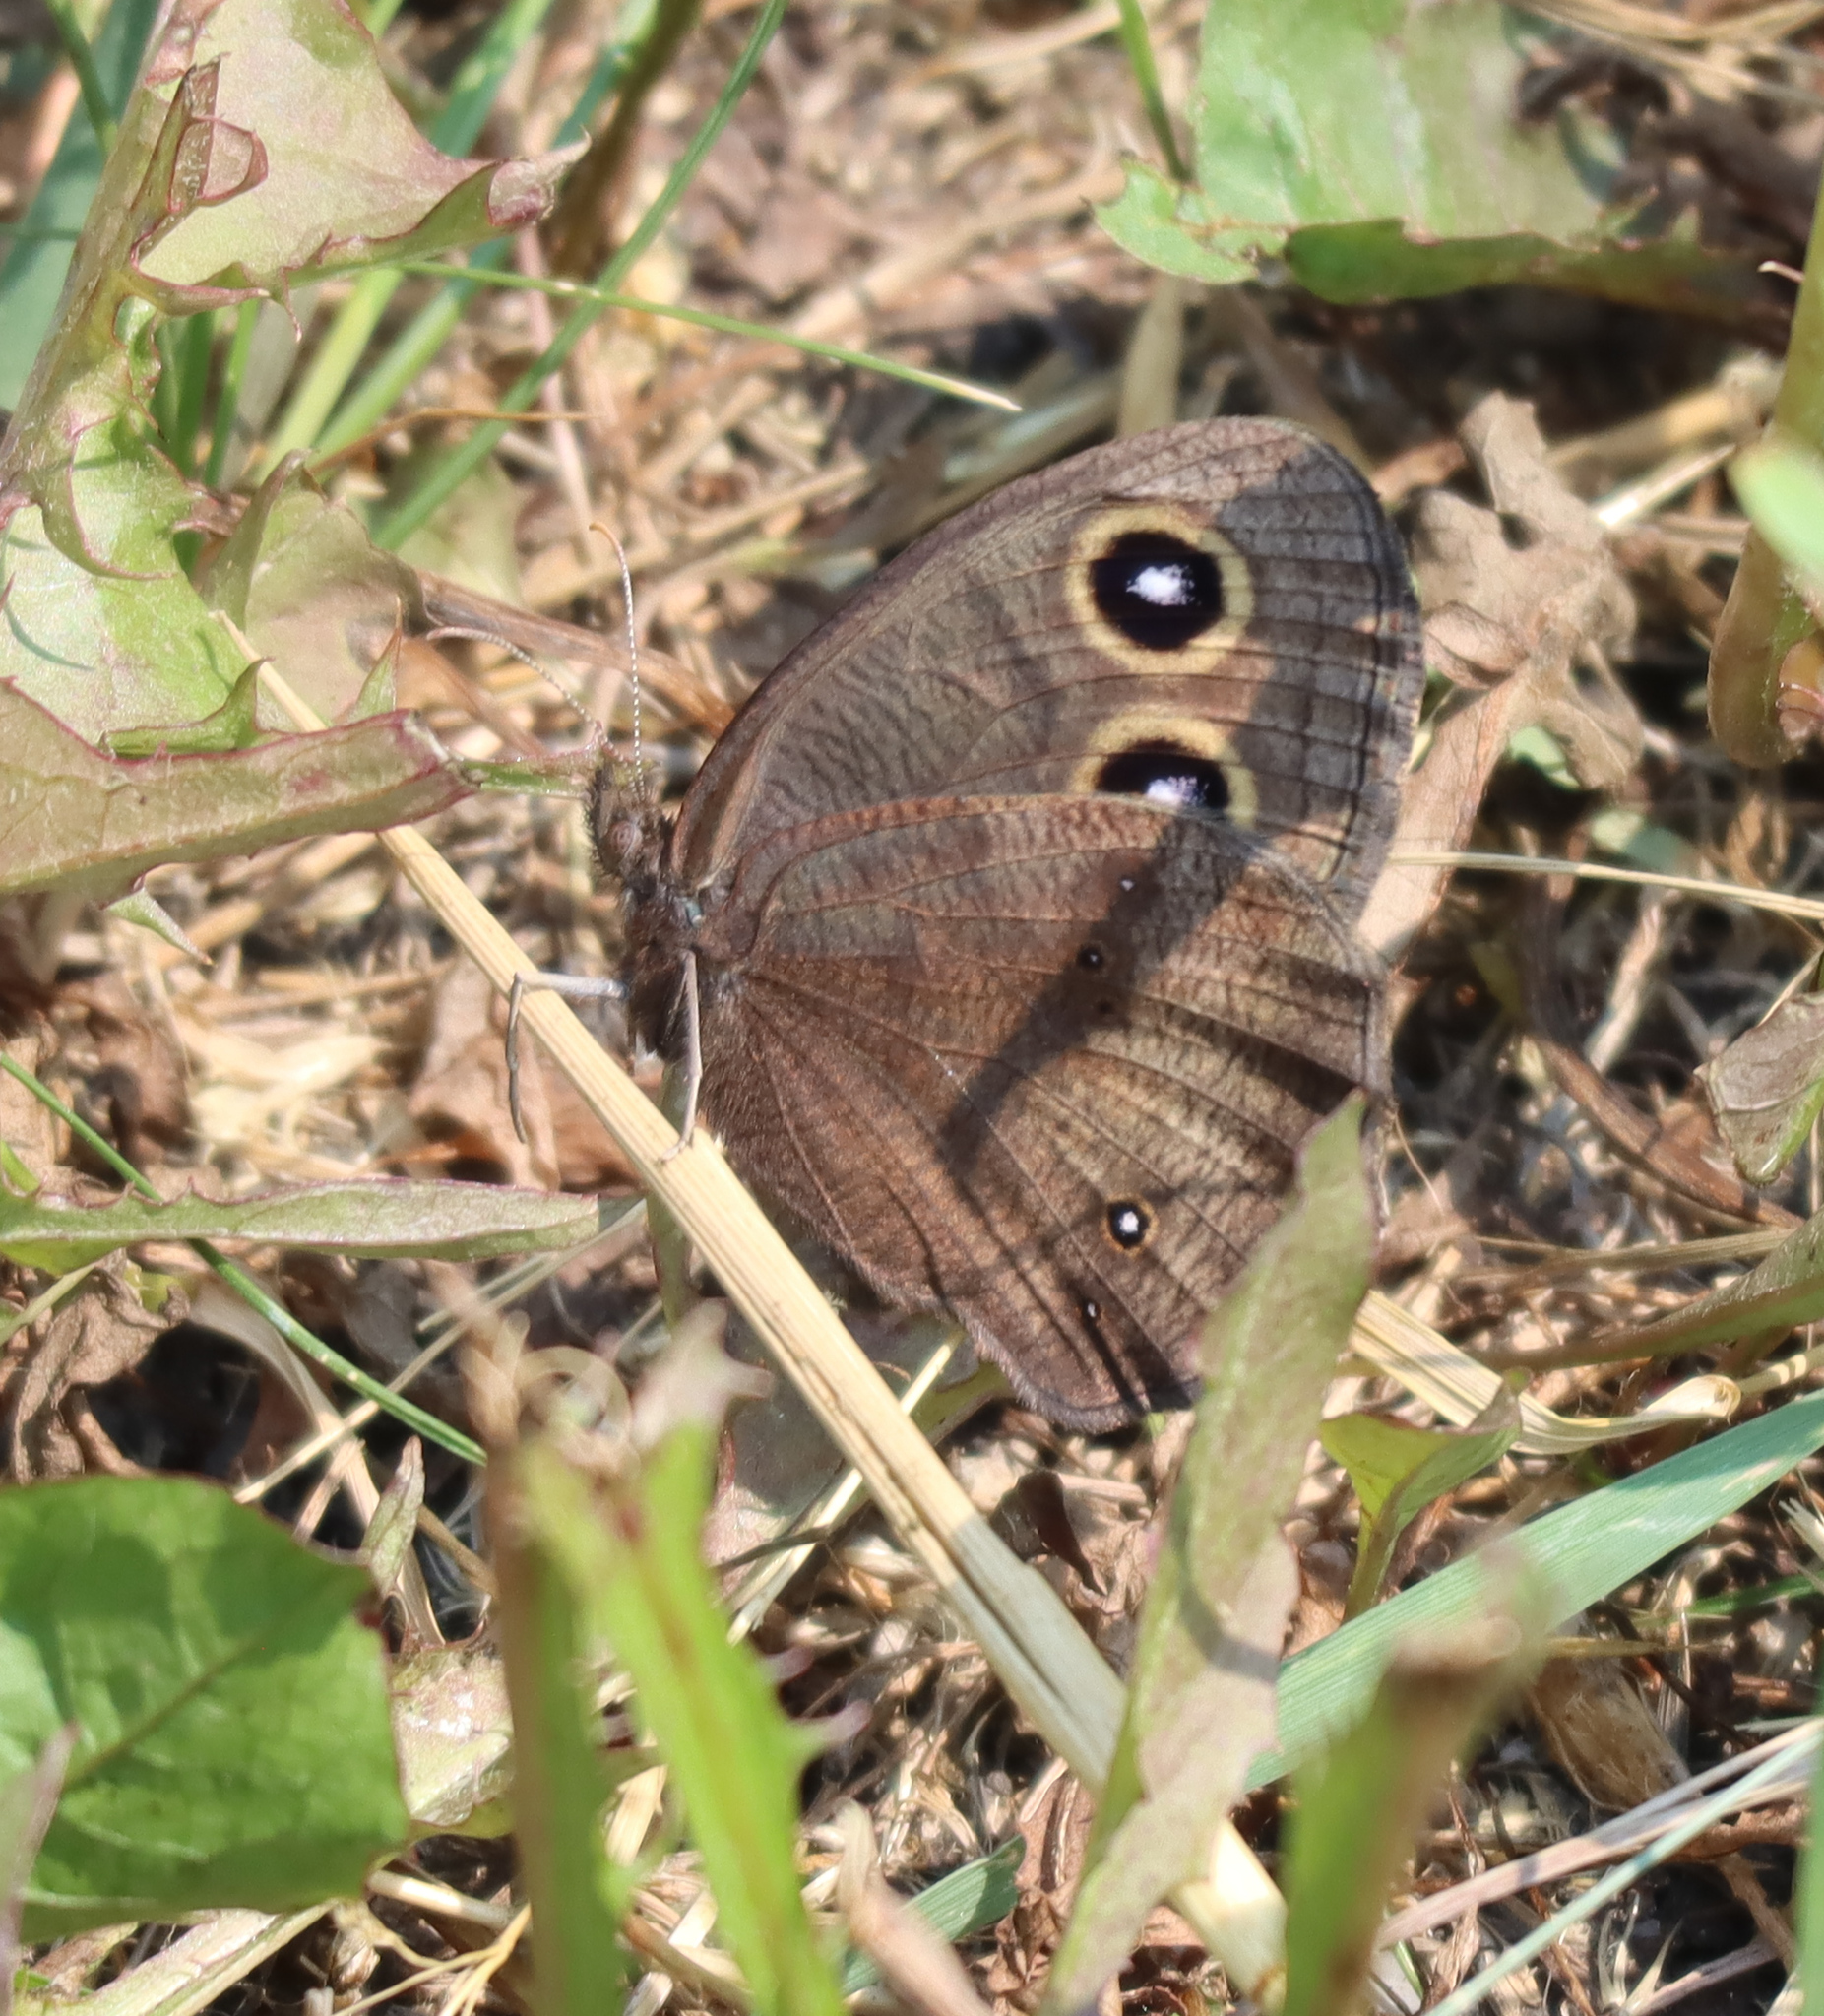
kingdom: Animalia
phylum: Arthropoda
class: Insecta
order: Lepidoptera
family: Nymphalidae
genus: Cercyonis
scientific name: Cercyonis pegala
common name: Common wood-nymph
